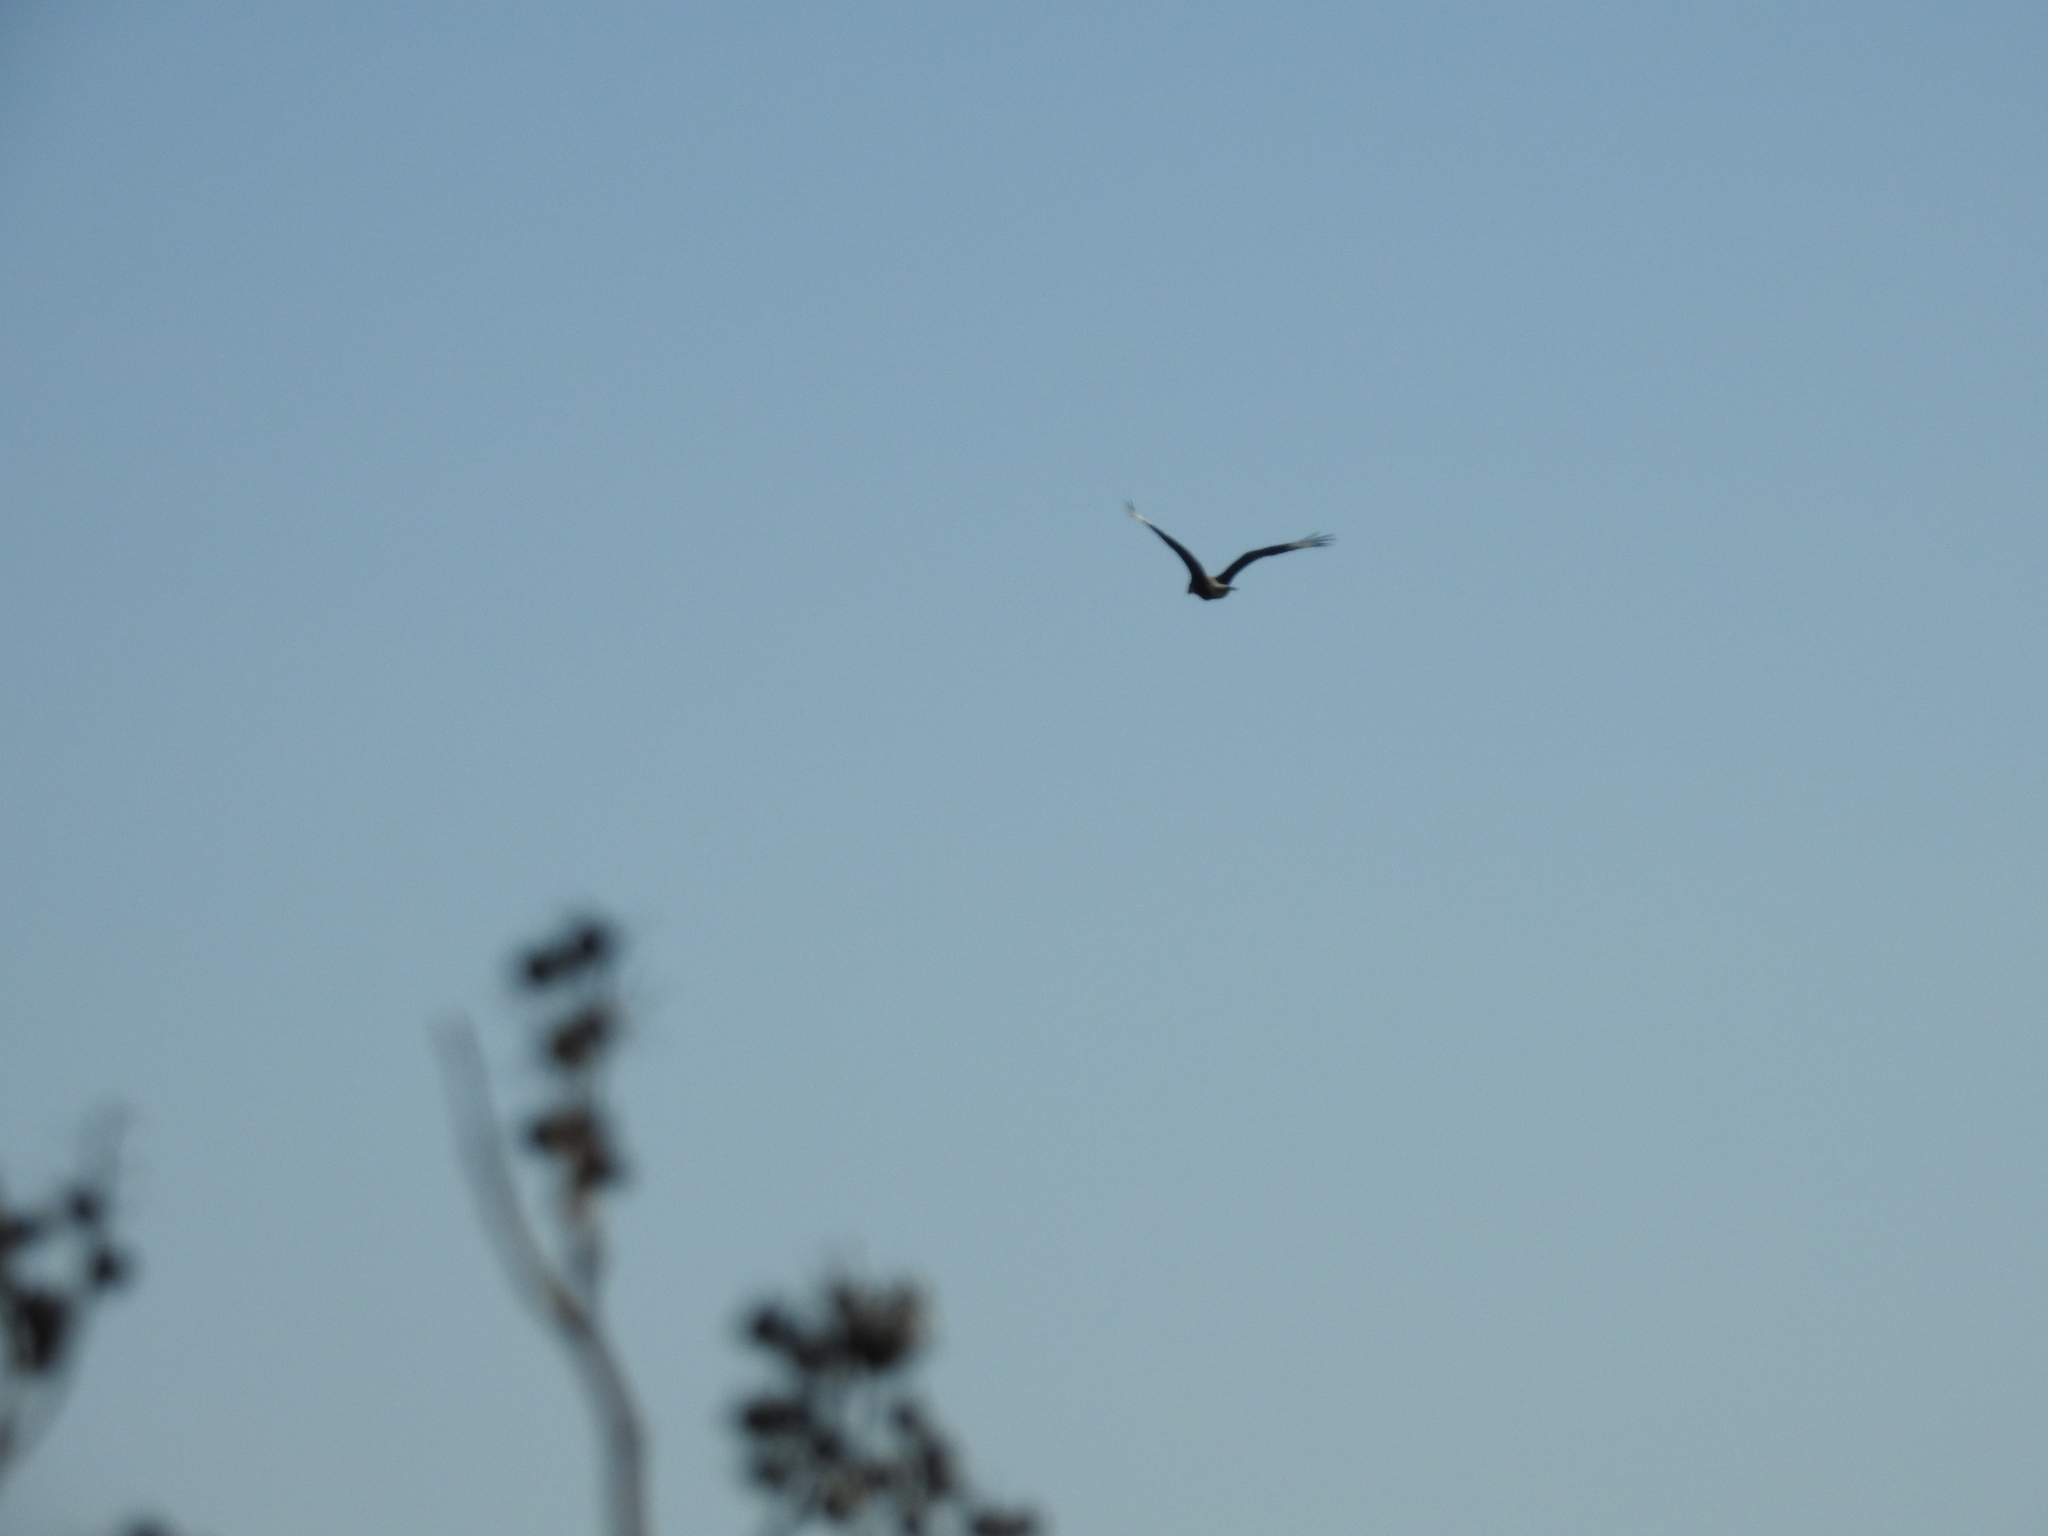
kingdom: Animalia
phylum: Chordata
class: Aves
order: Falconiformes
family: Falconidae
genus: Caracara
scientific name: Caracara plancus
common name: Southern caracara
